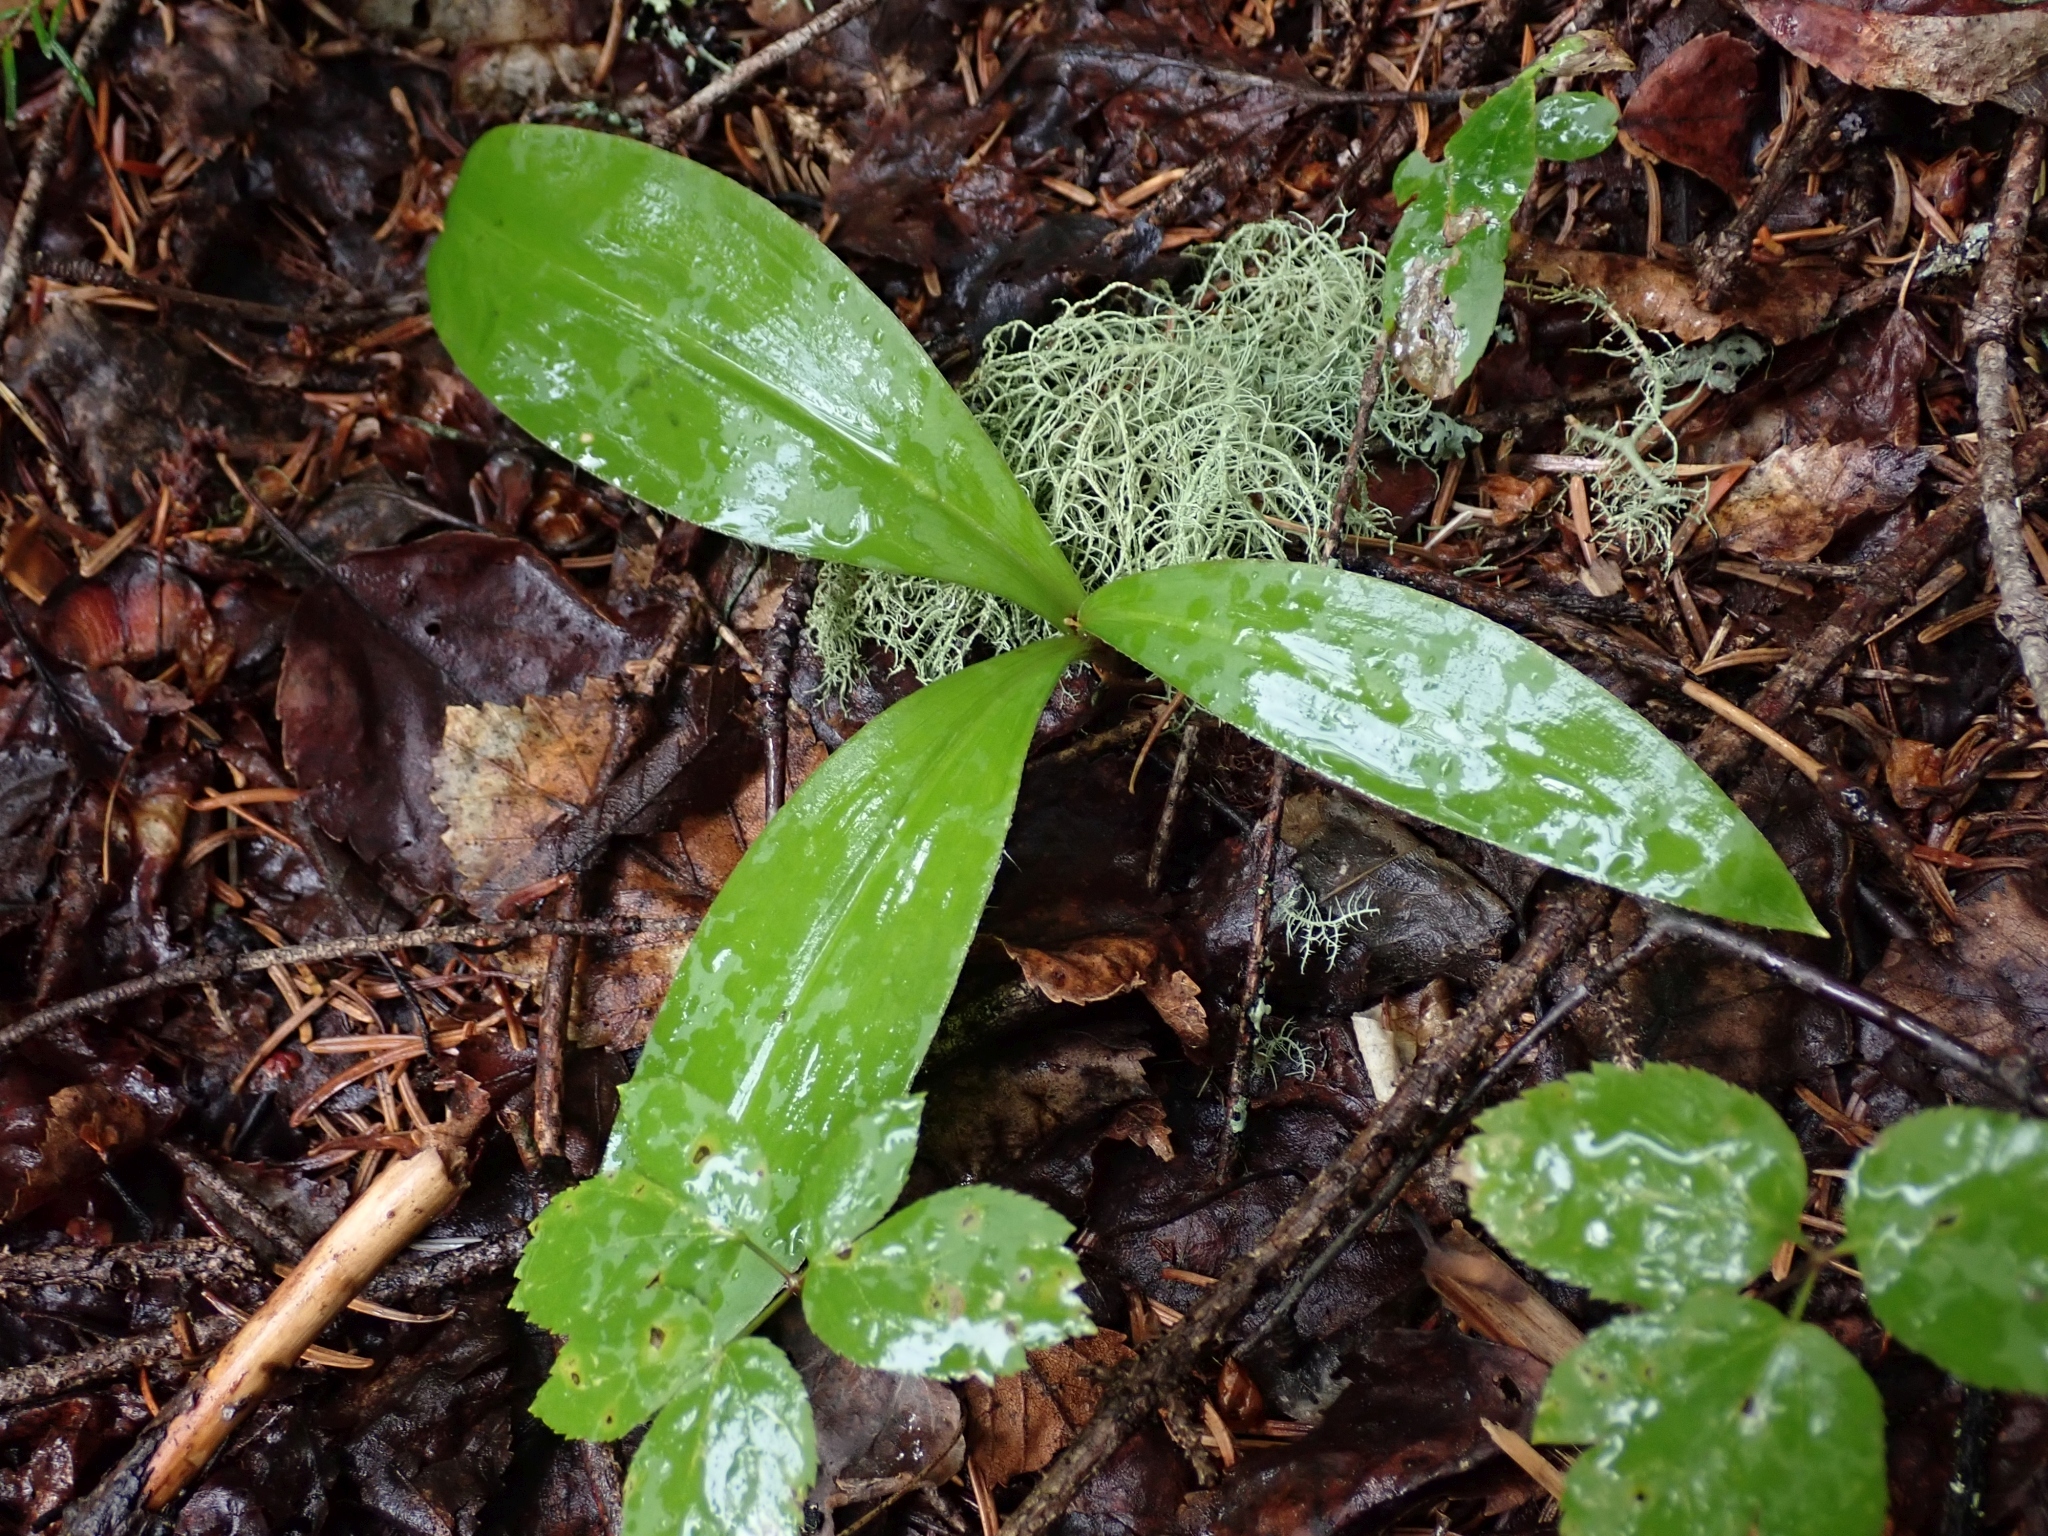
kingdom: Plantae
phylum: Tracheophyta
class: Liliopsida
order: Liliales
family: Liliaceae
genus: Clintonia
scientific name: Clintonia uniflora
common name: Queen's cup
